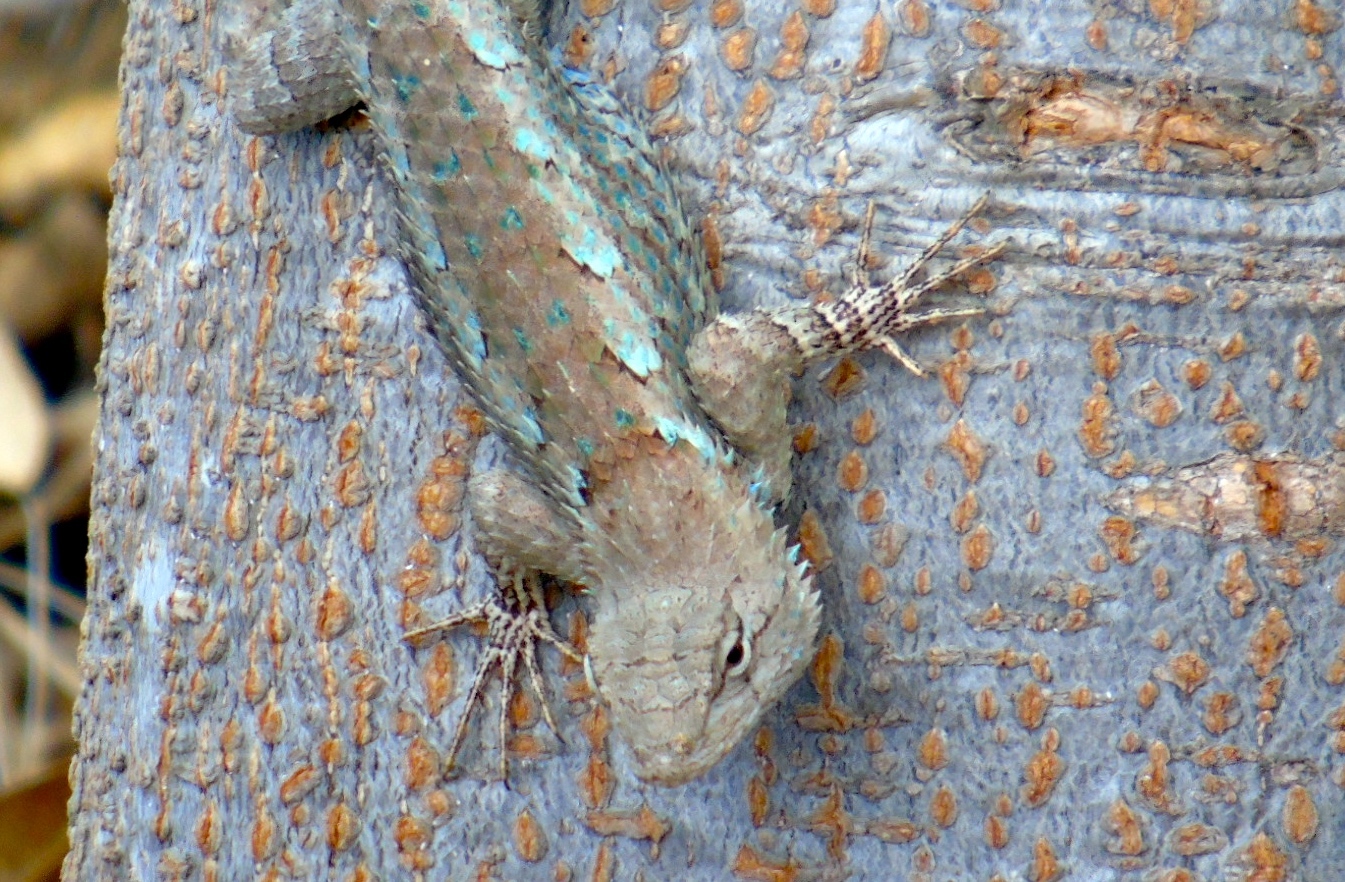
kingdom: Animalia
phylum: Chordata
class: Squamata
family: Phrynosomatidae
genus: Sceloporus
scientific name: Sceloporus clarkii
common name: Clark's spiny lizard
